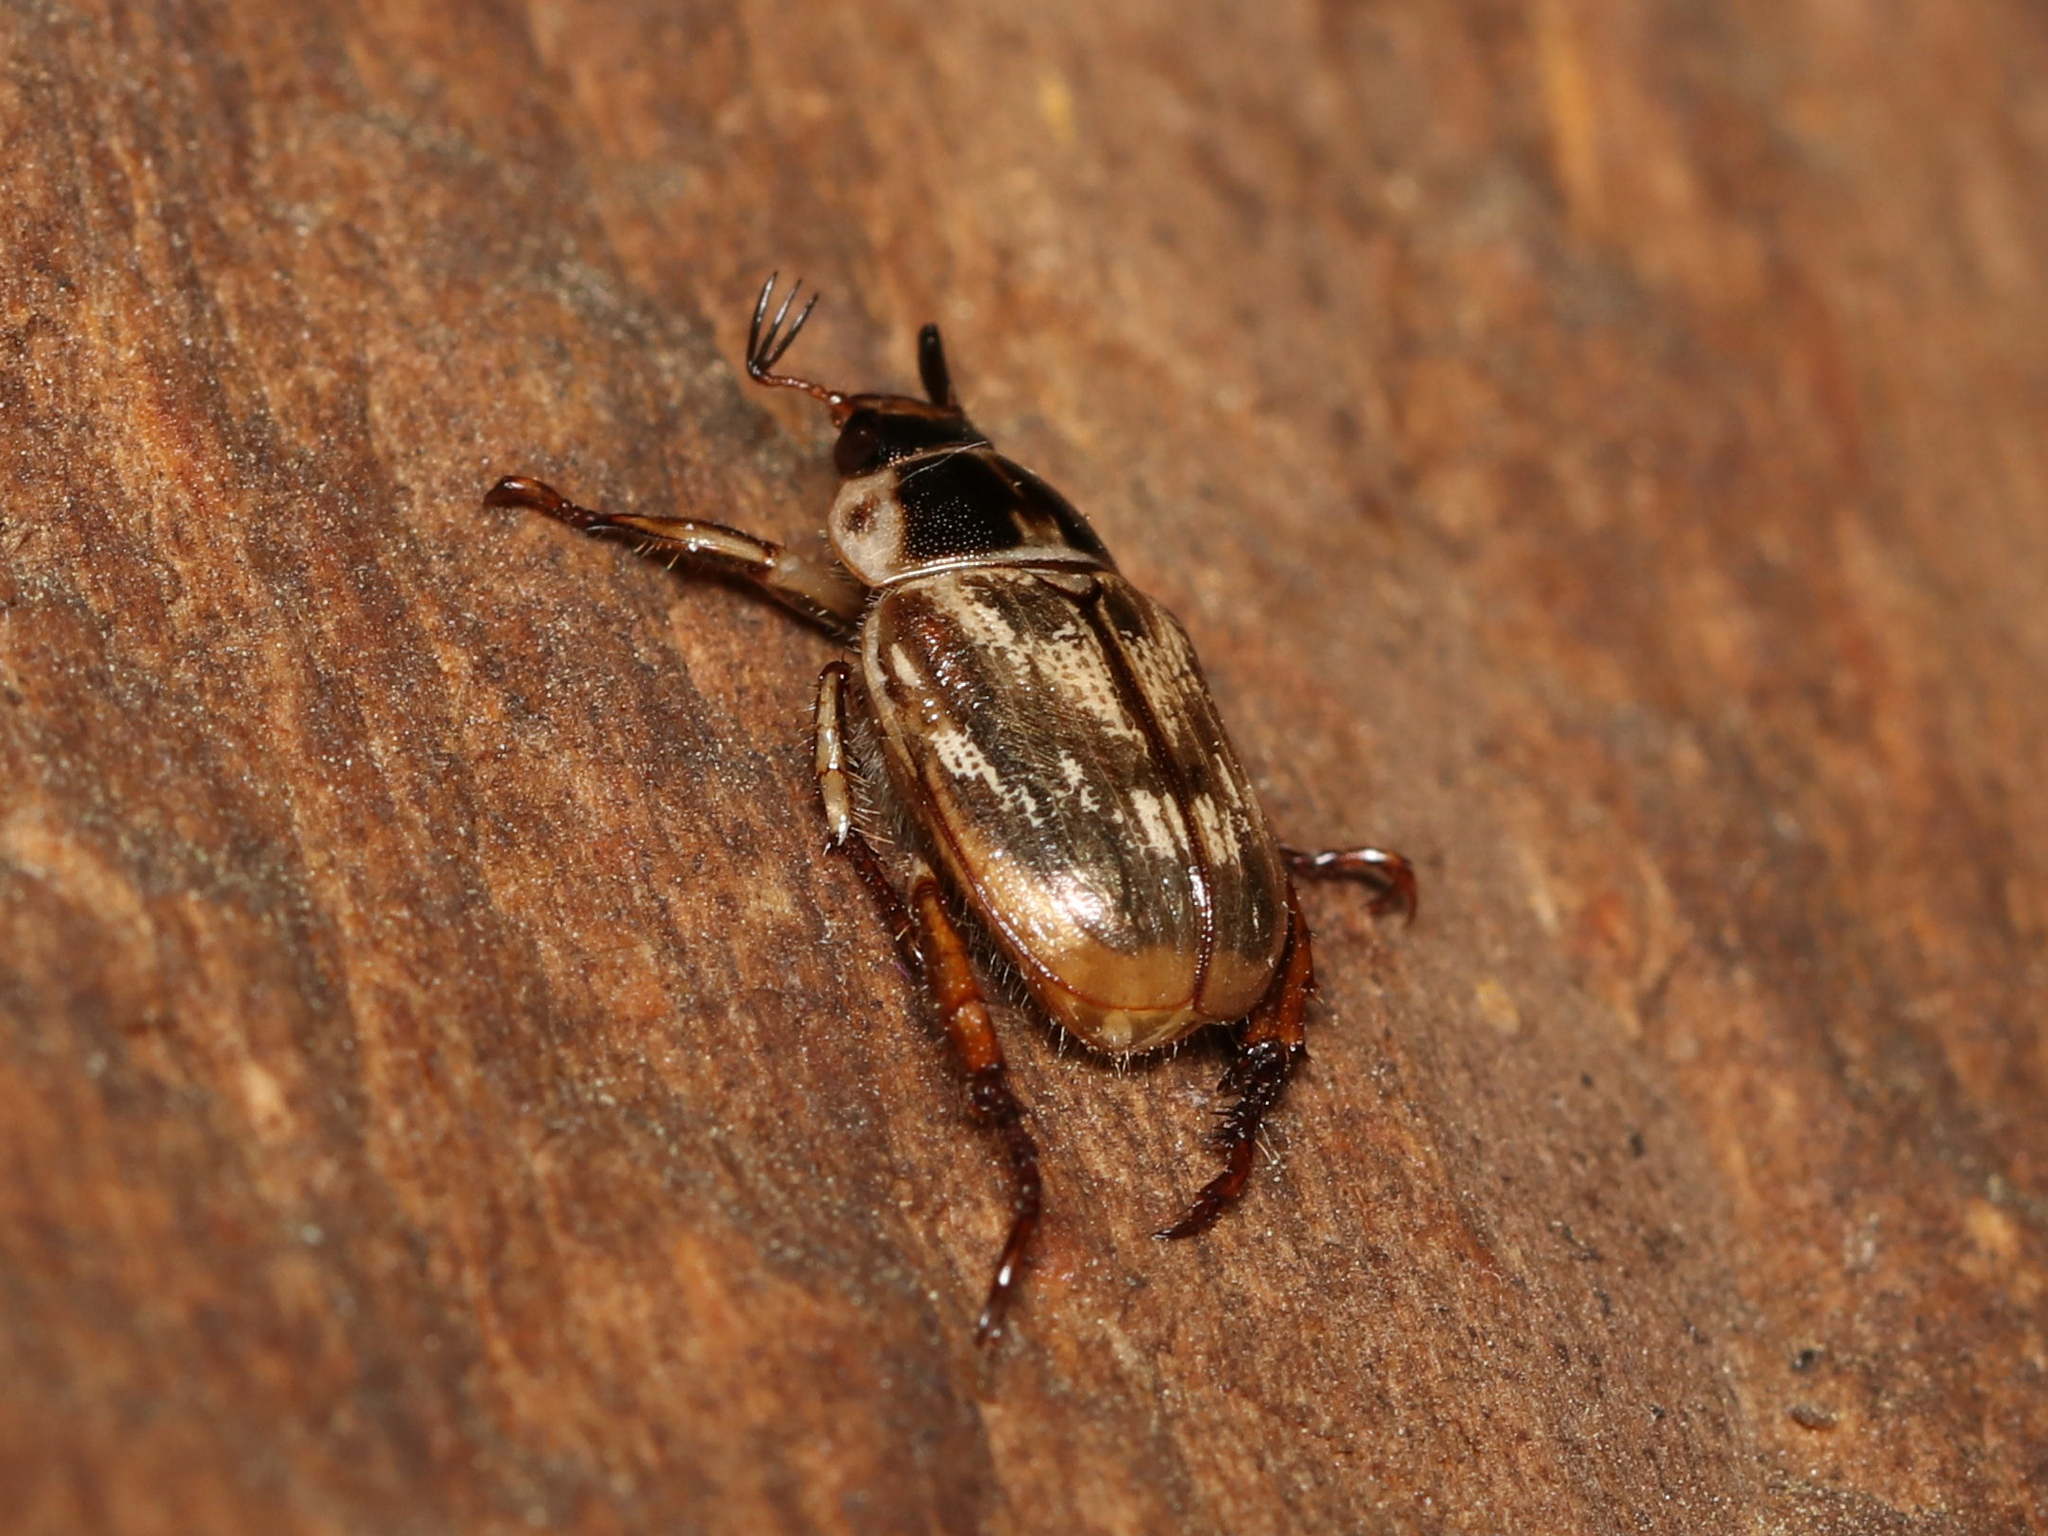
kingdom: Animalia
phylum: Arthropoda
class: Insecta
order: Coleoptera
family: Scarabaeidae
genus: Exomala
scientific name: Exomala orientalis
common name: Oriental beetle
